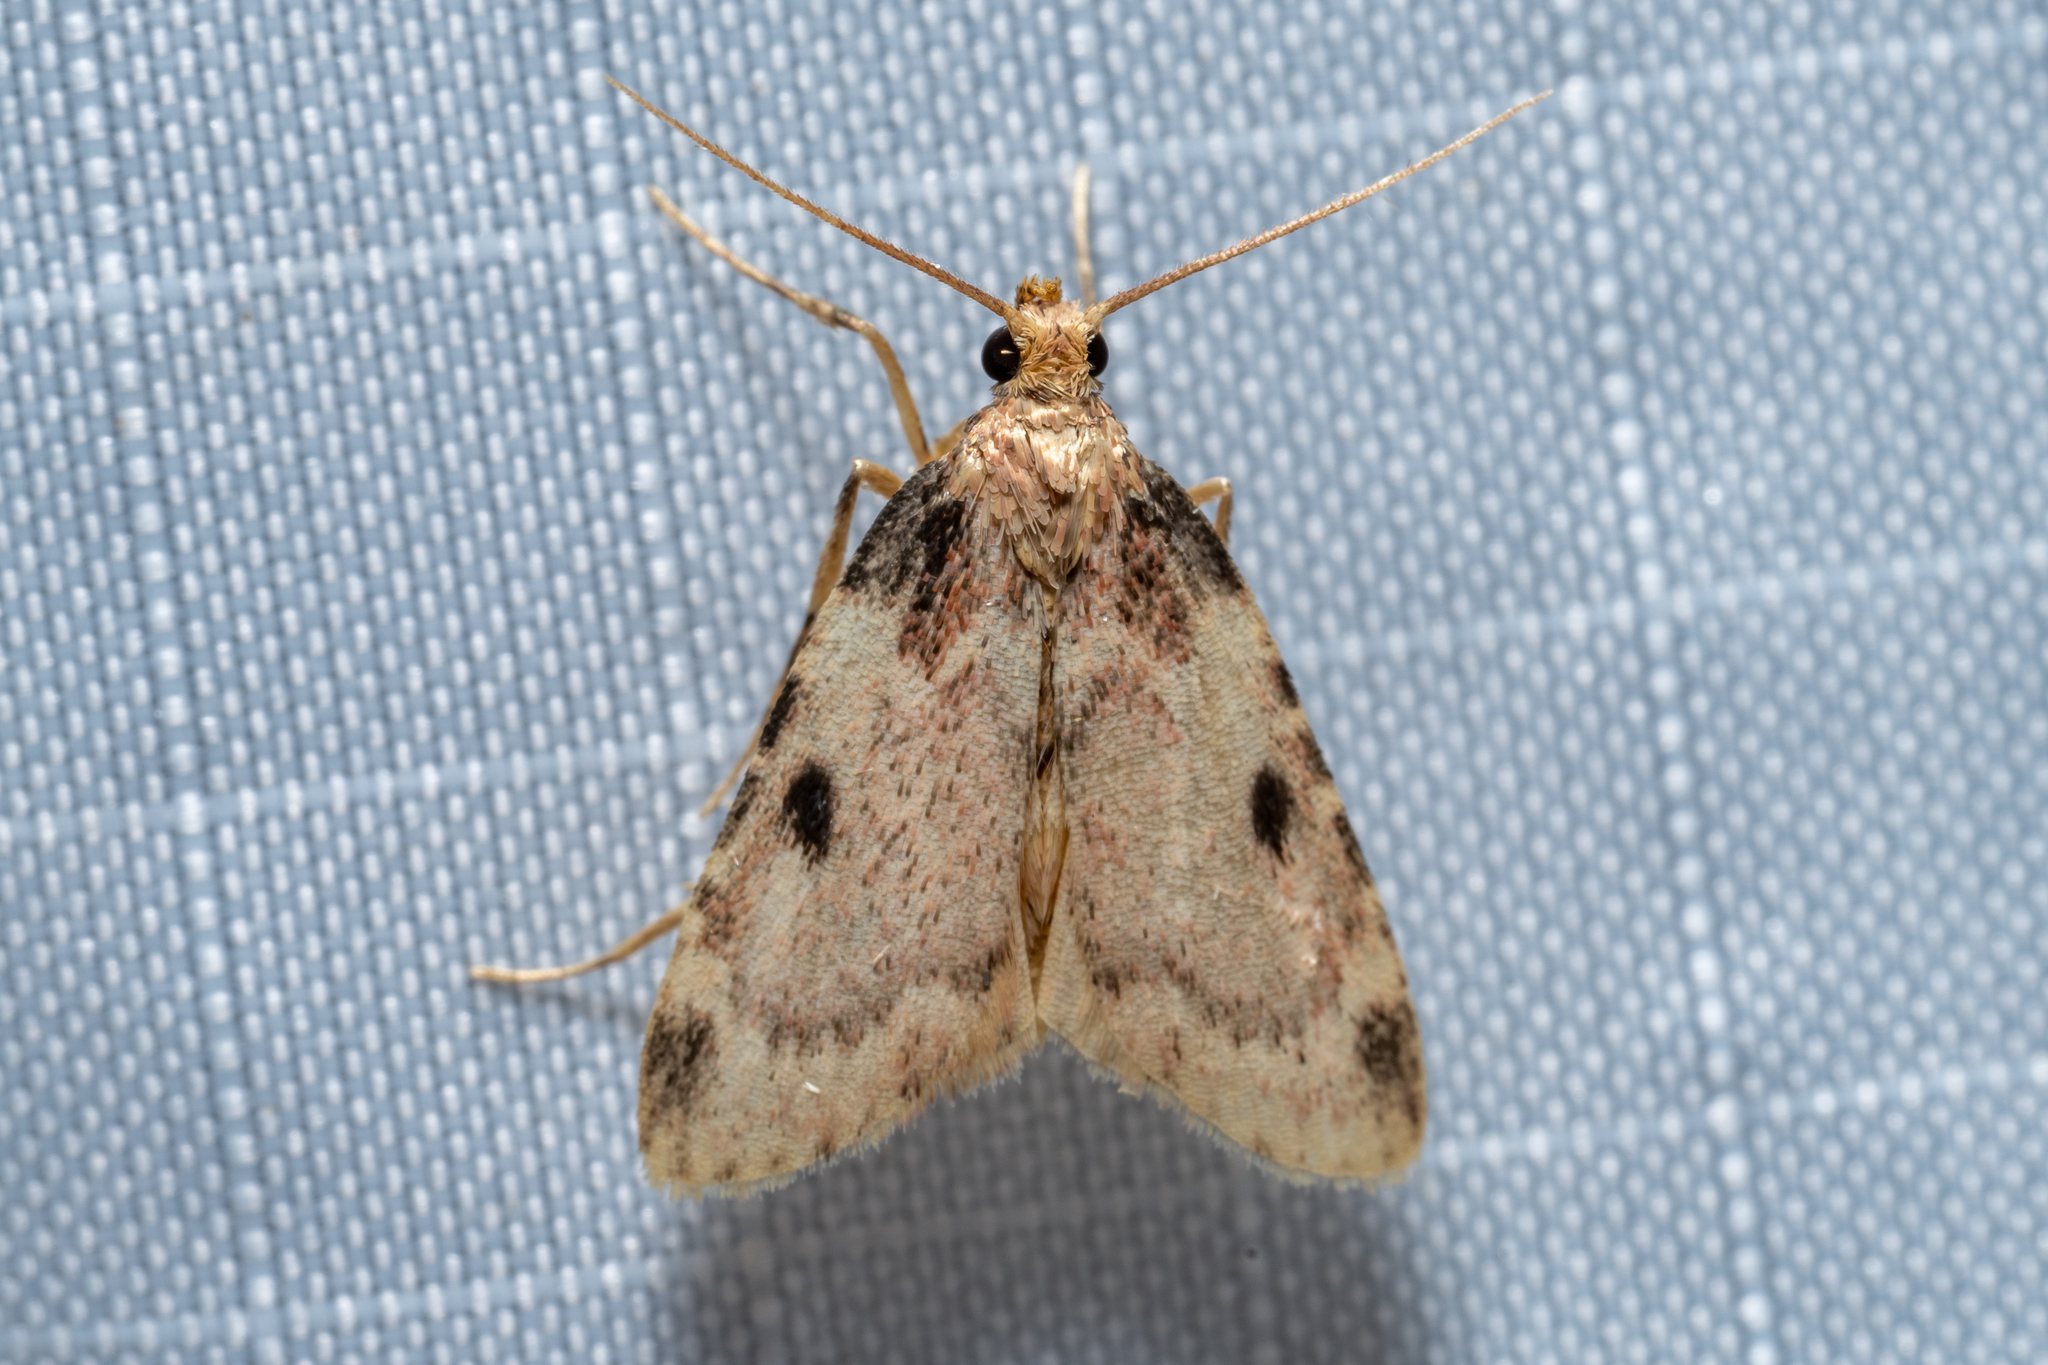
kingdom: Animalia
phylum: Arthropoda
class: Insecta
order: Lepidoptera
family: Pyralidae
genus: Aglossa
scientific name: Aglossa costiferalis
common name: Calico pyralid moth
